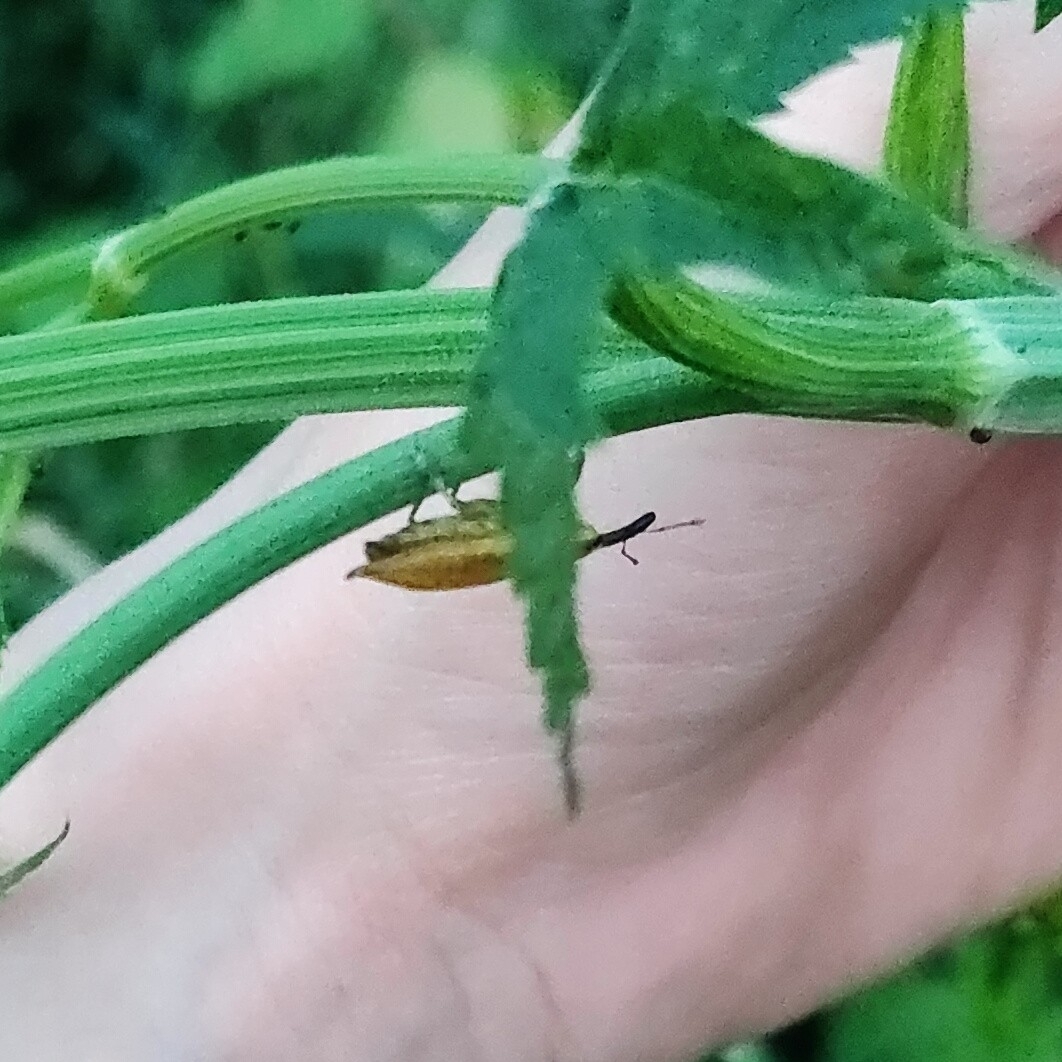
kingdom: Animalia
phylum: Arthropoda
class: Insecta
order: Coleoptera
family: Curculionidae
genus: Lixus
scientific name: Lixus iridis
